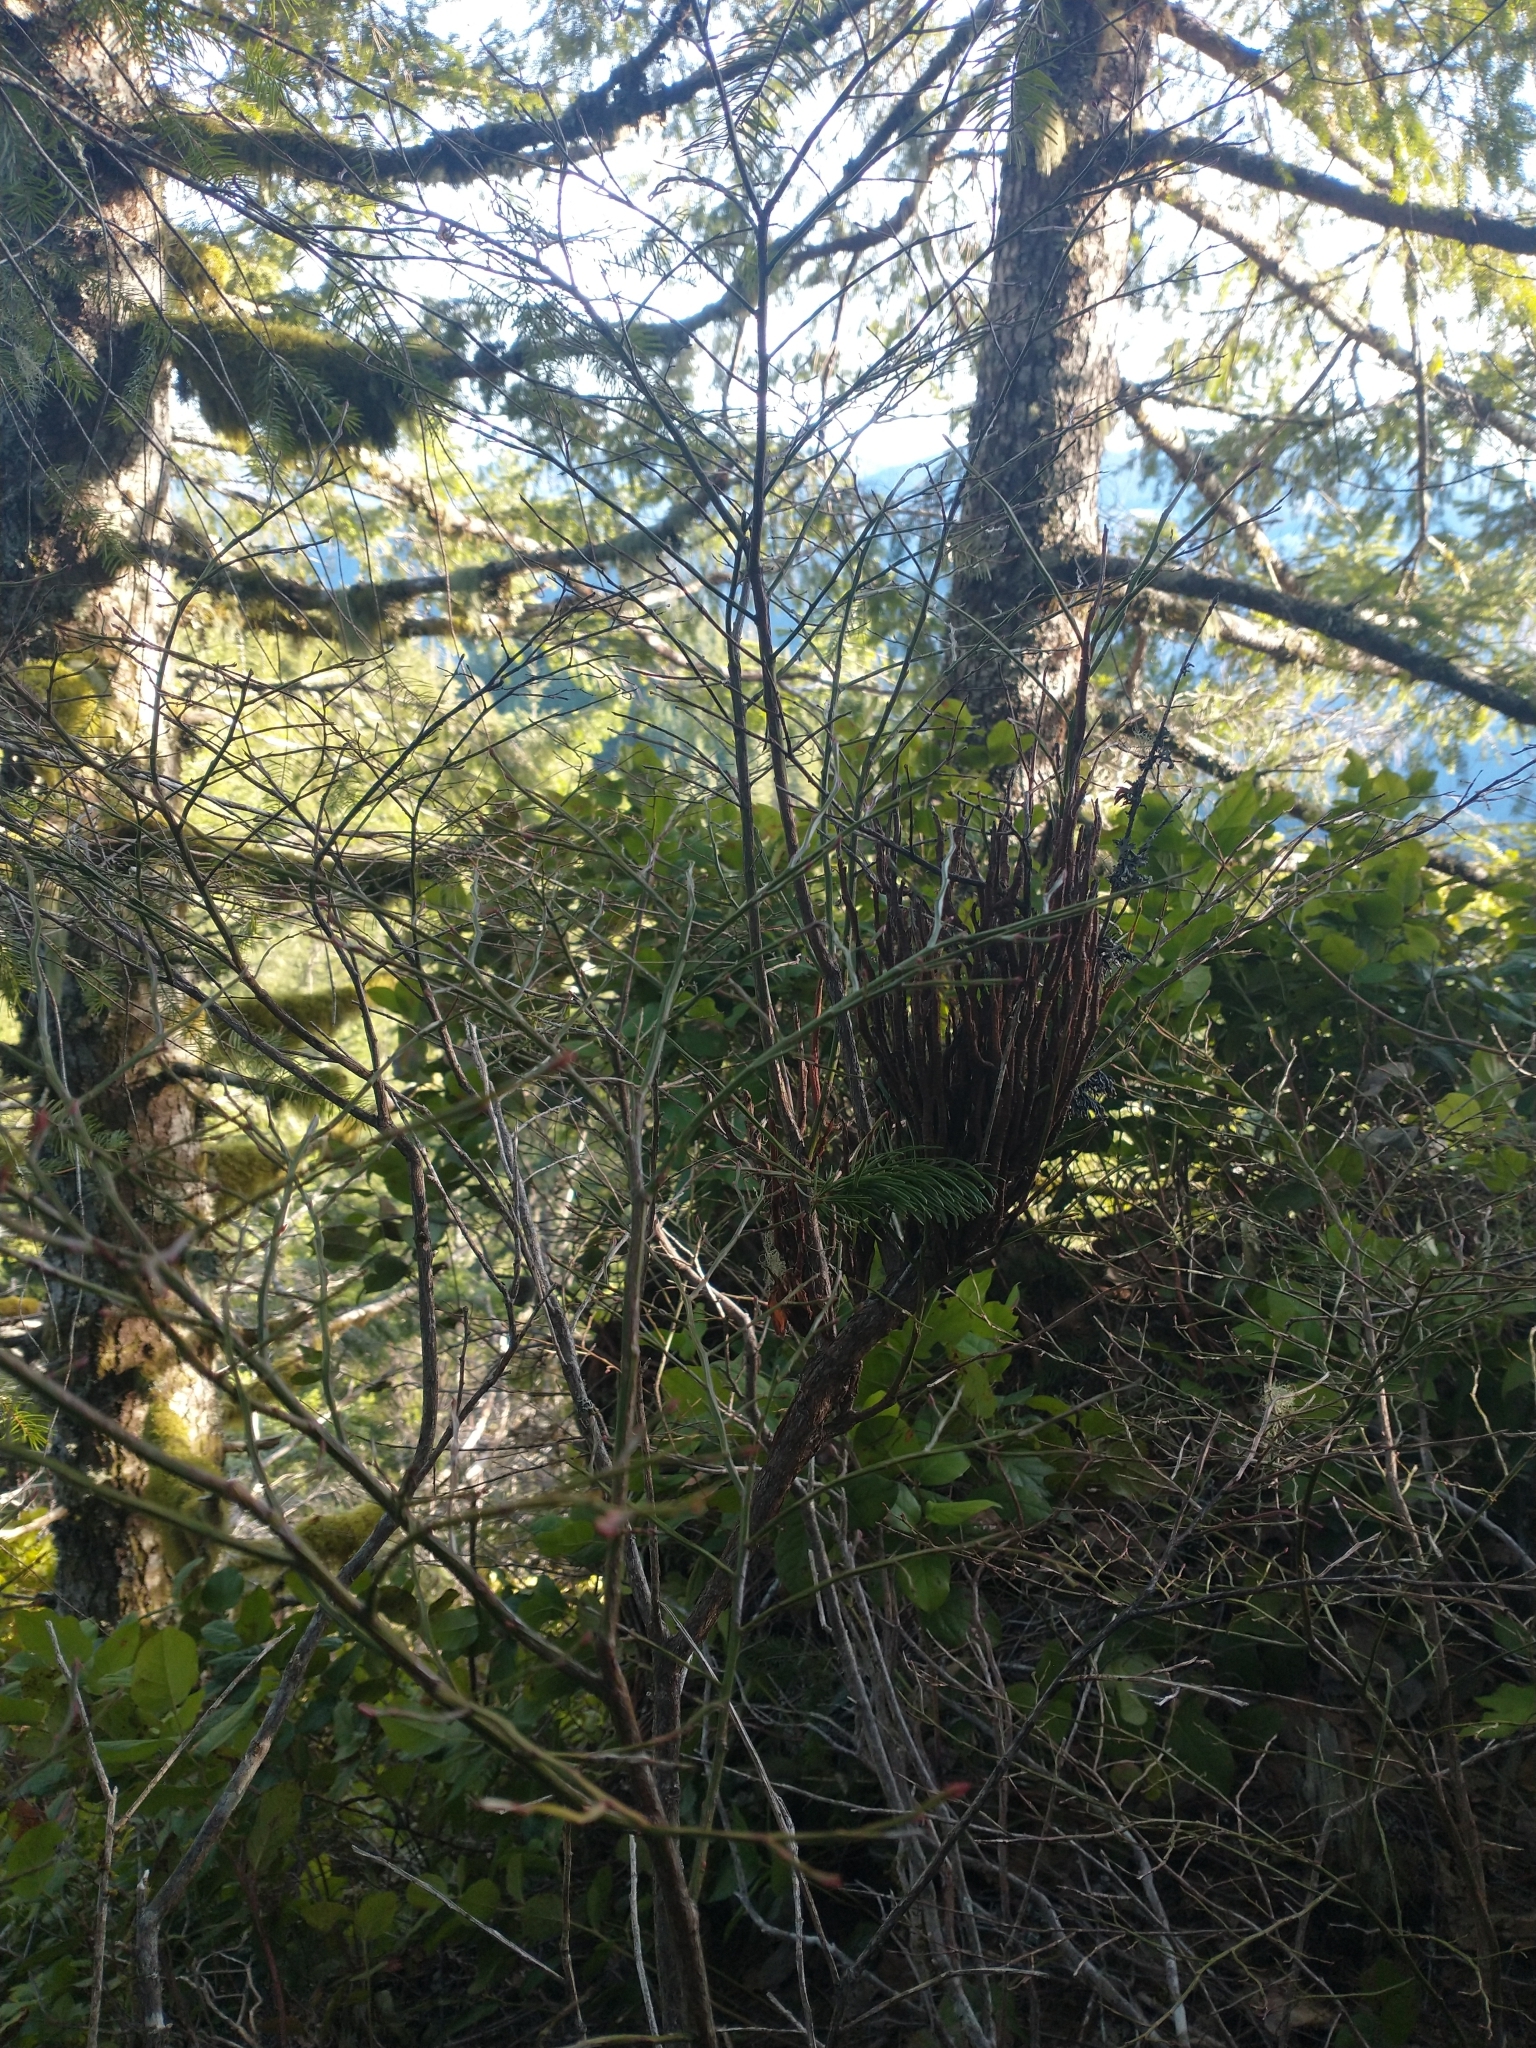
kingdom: Fungi
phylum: Basidiomycota
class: Pucciniomycetes
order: Pucciniales
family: Pucciniastraceae
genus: Calyptospora
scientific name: Calyptospora
